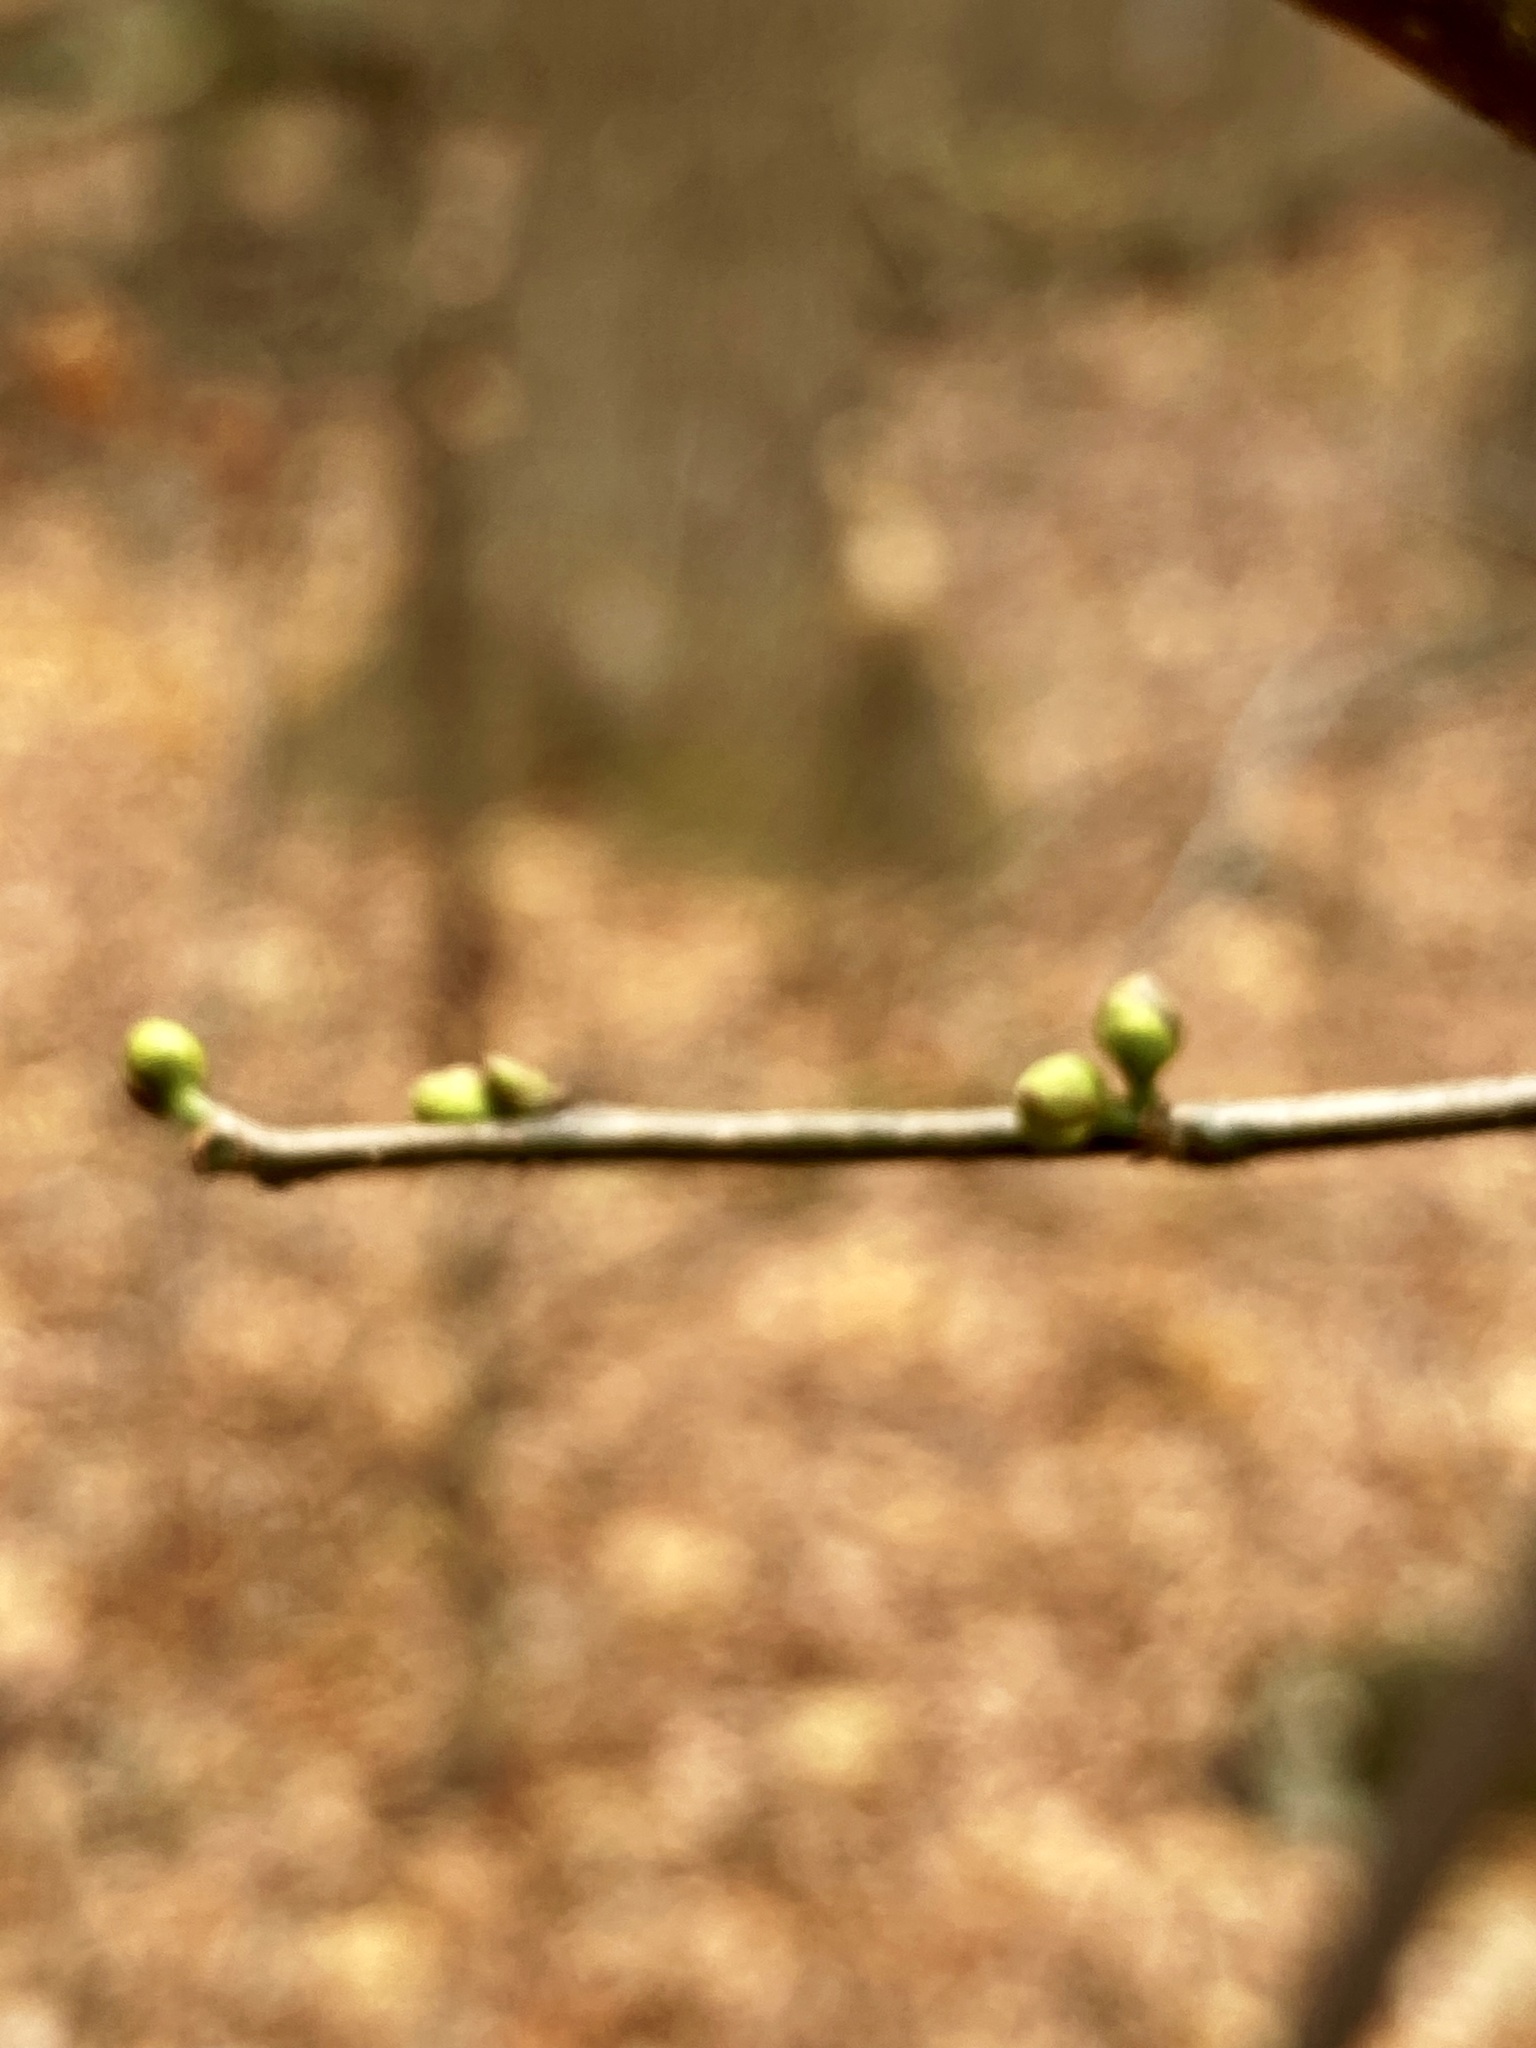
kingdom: Plantae
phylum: Tracheophyta
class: Magnoliopsida
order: Laurales
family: Lauraceae
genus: Lindera
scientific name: Lindera benzoin
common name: Spicebush
